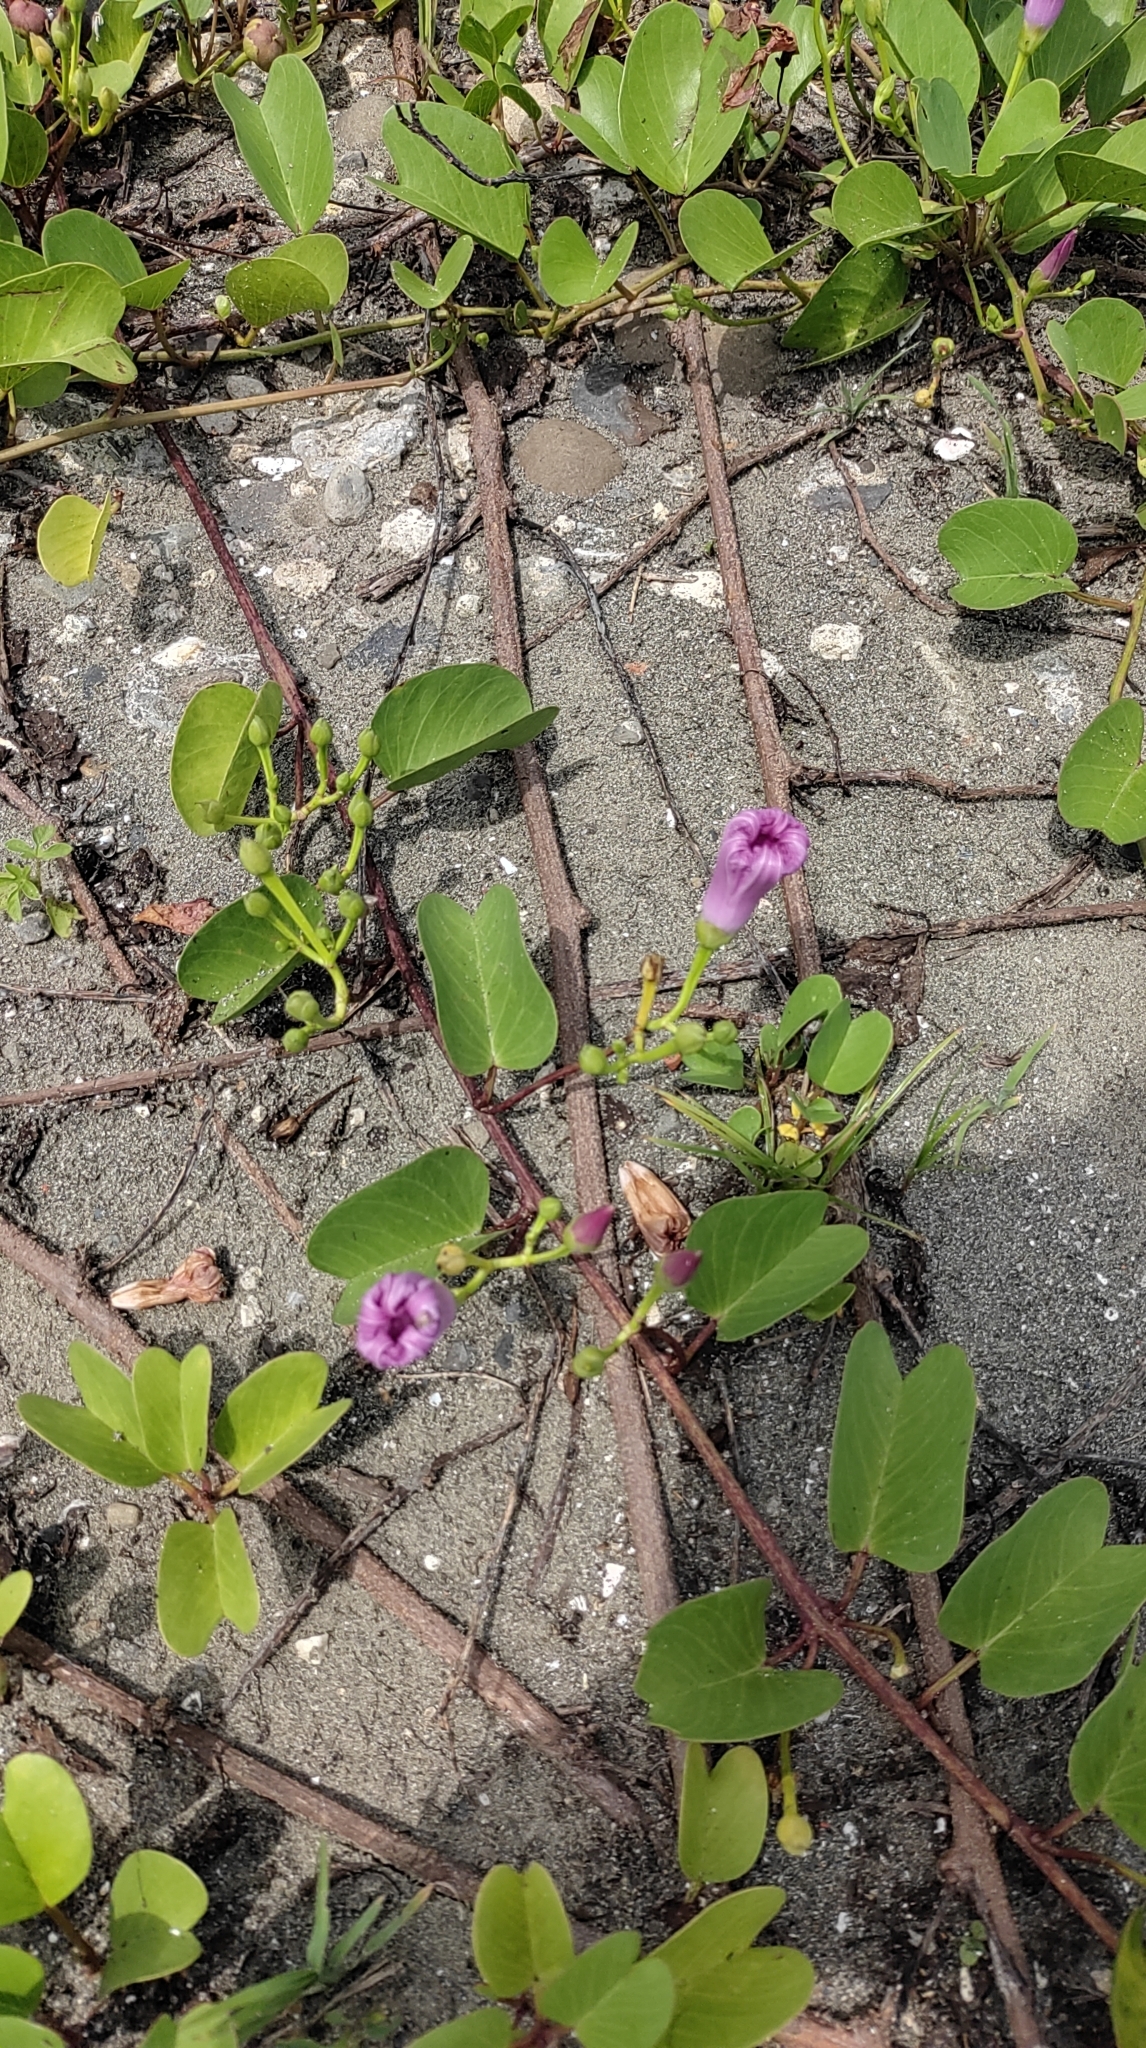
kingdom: Plantae
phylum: Tracheophyta
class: Magnoliopsida
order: Solanales
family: Convolvulaceae
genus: Ipomoea
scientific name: Ipomoea pes-caprae
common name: Beach morning glory
